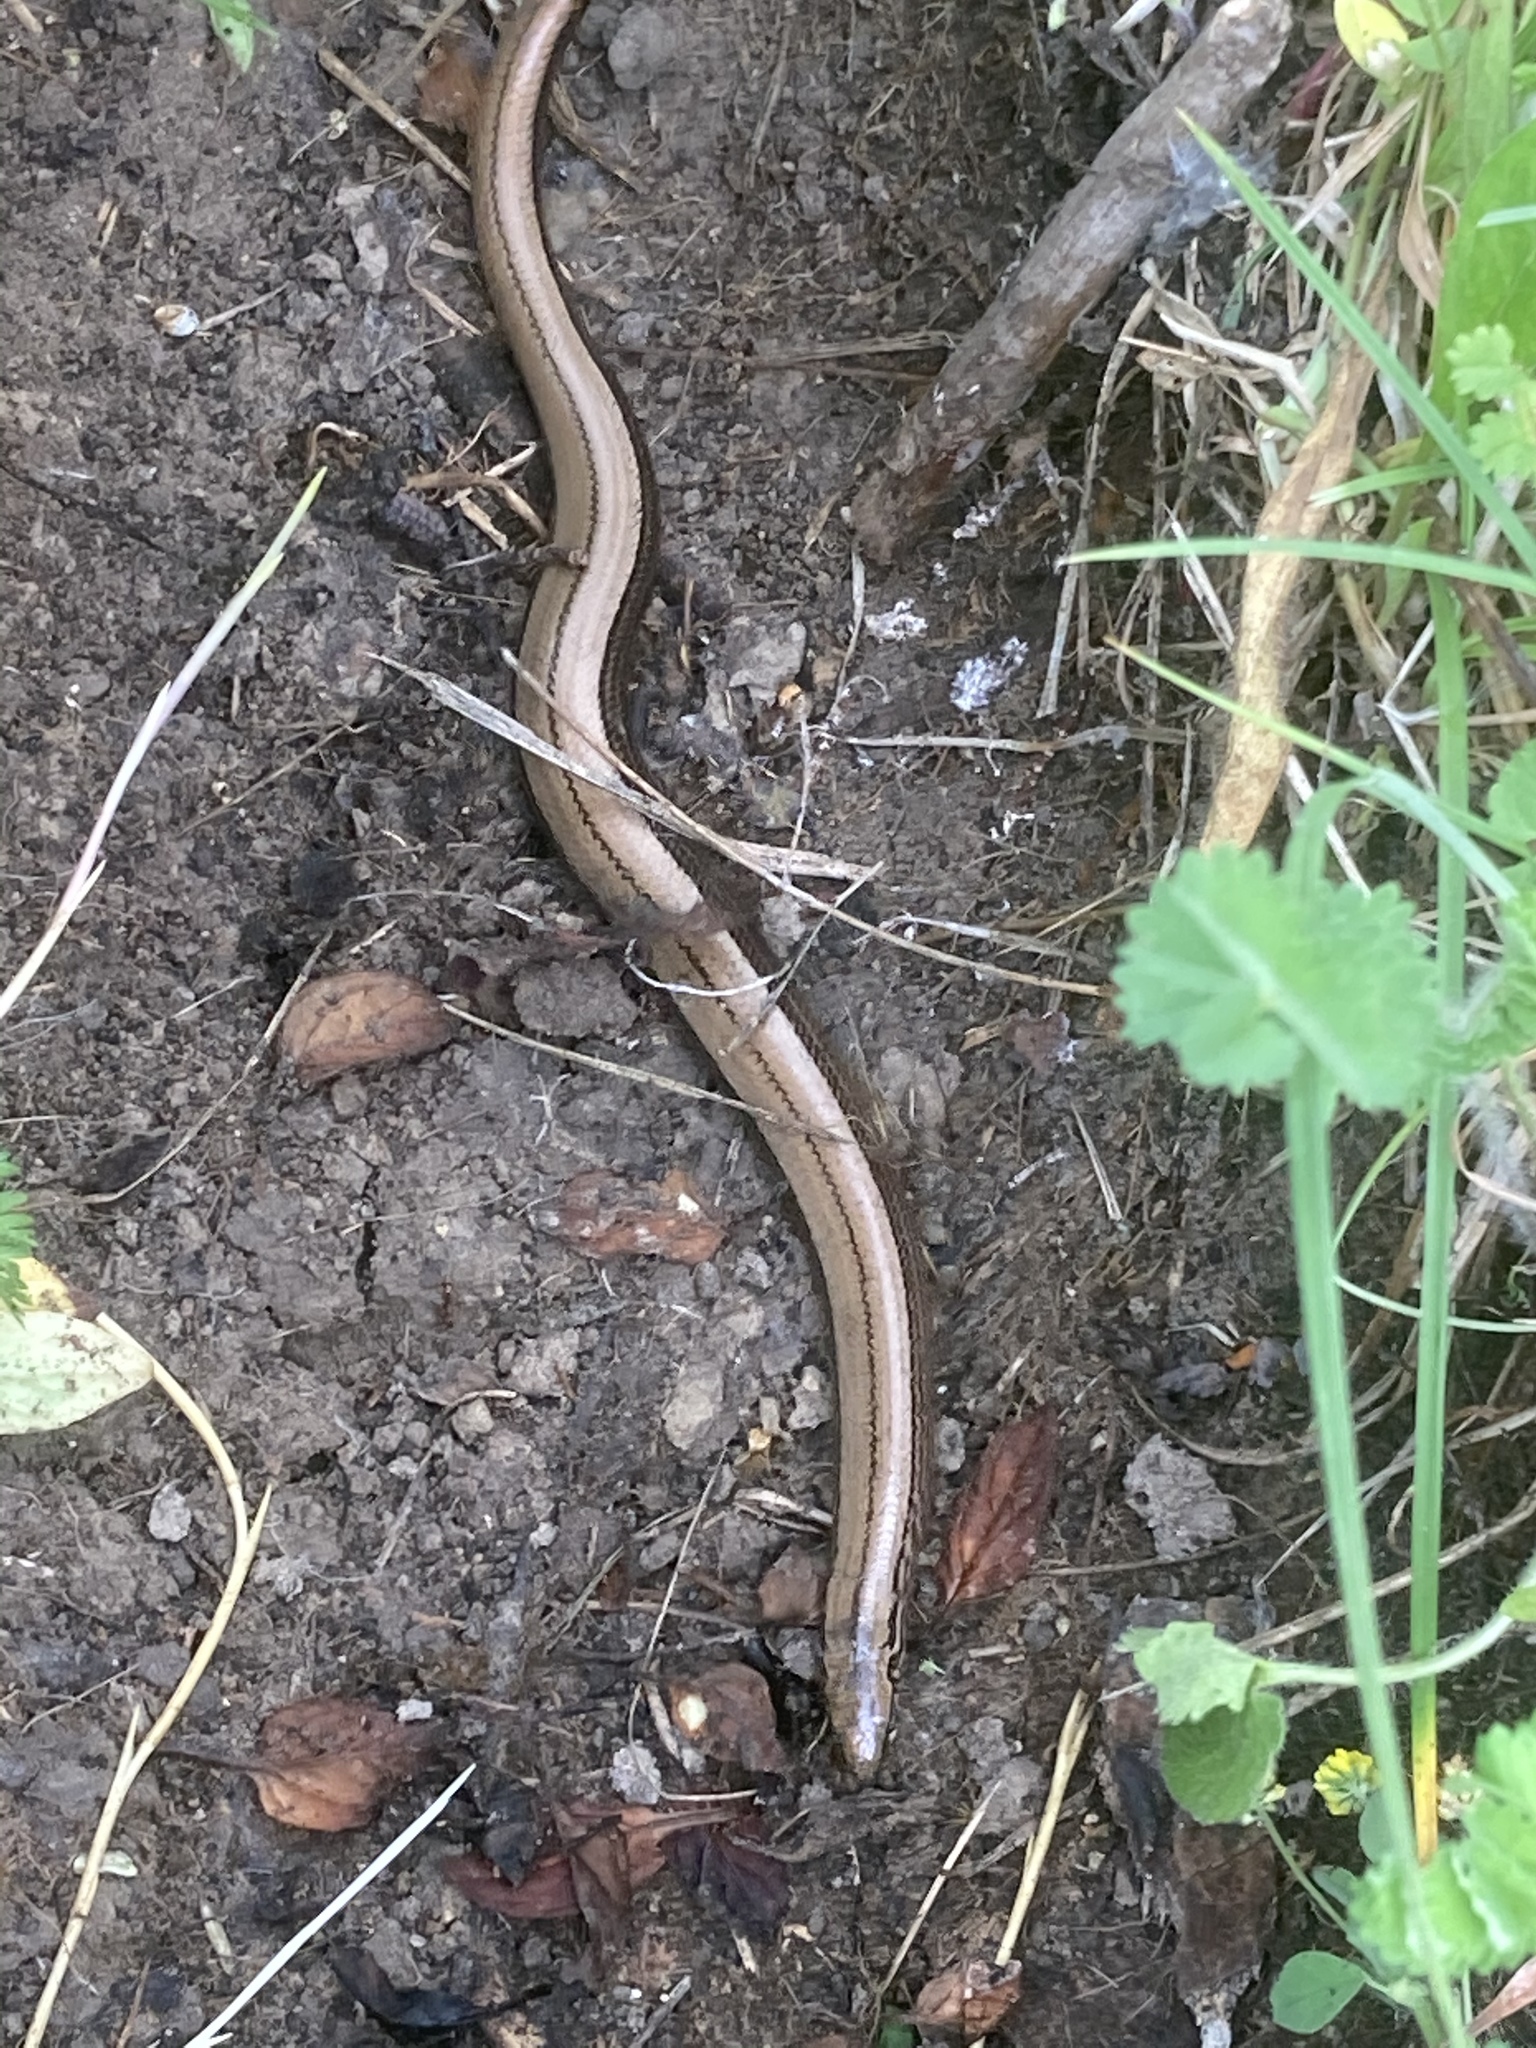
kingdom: Animalia
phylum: Chordata
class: Squamata
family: Anguidae
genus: Anguis
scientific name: Anguis fragilis
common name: Slow worm
